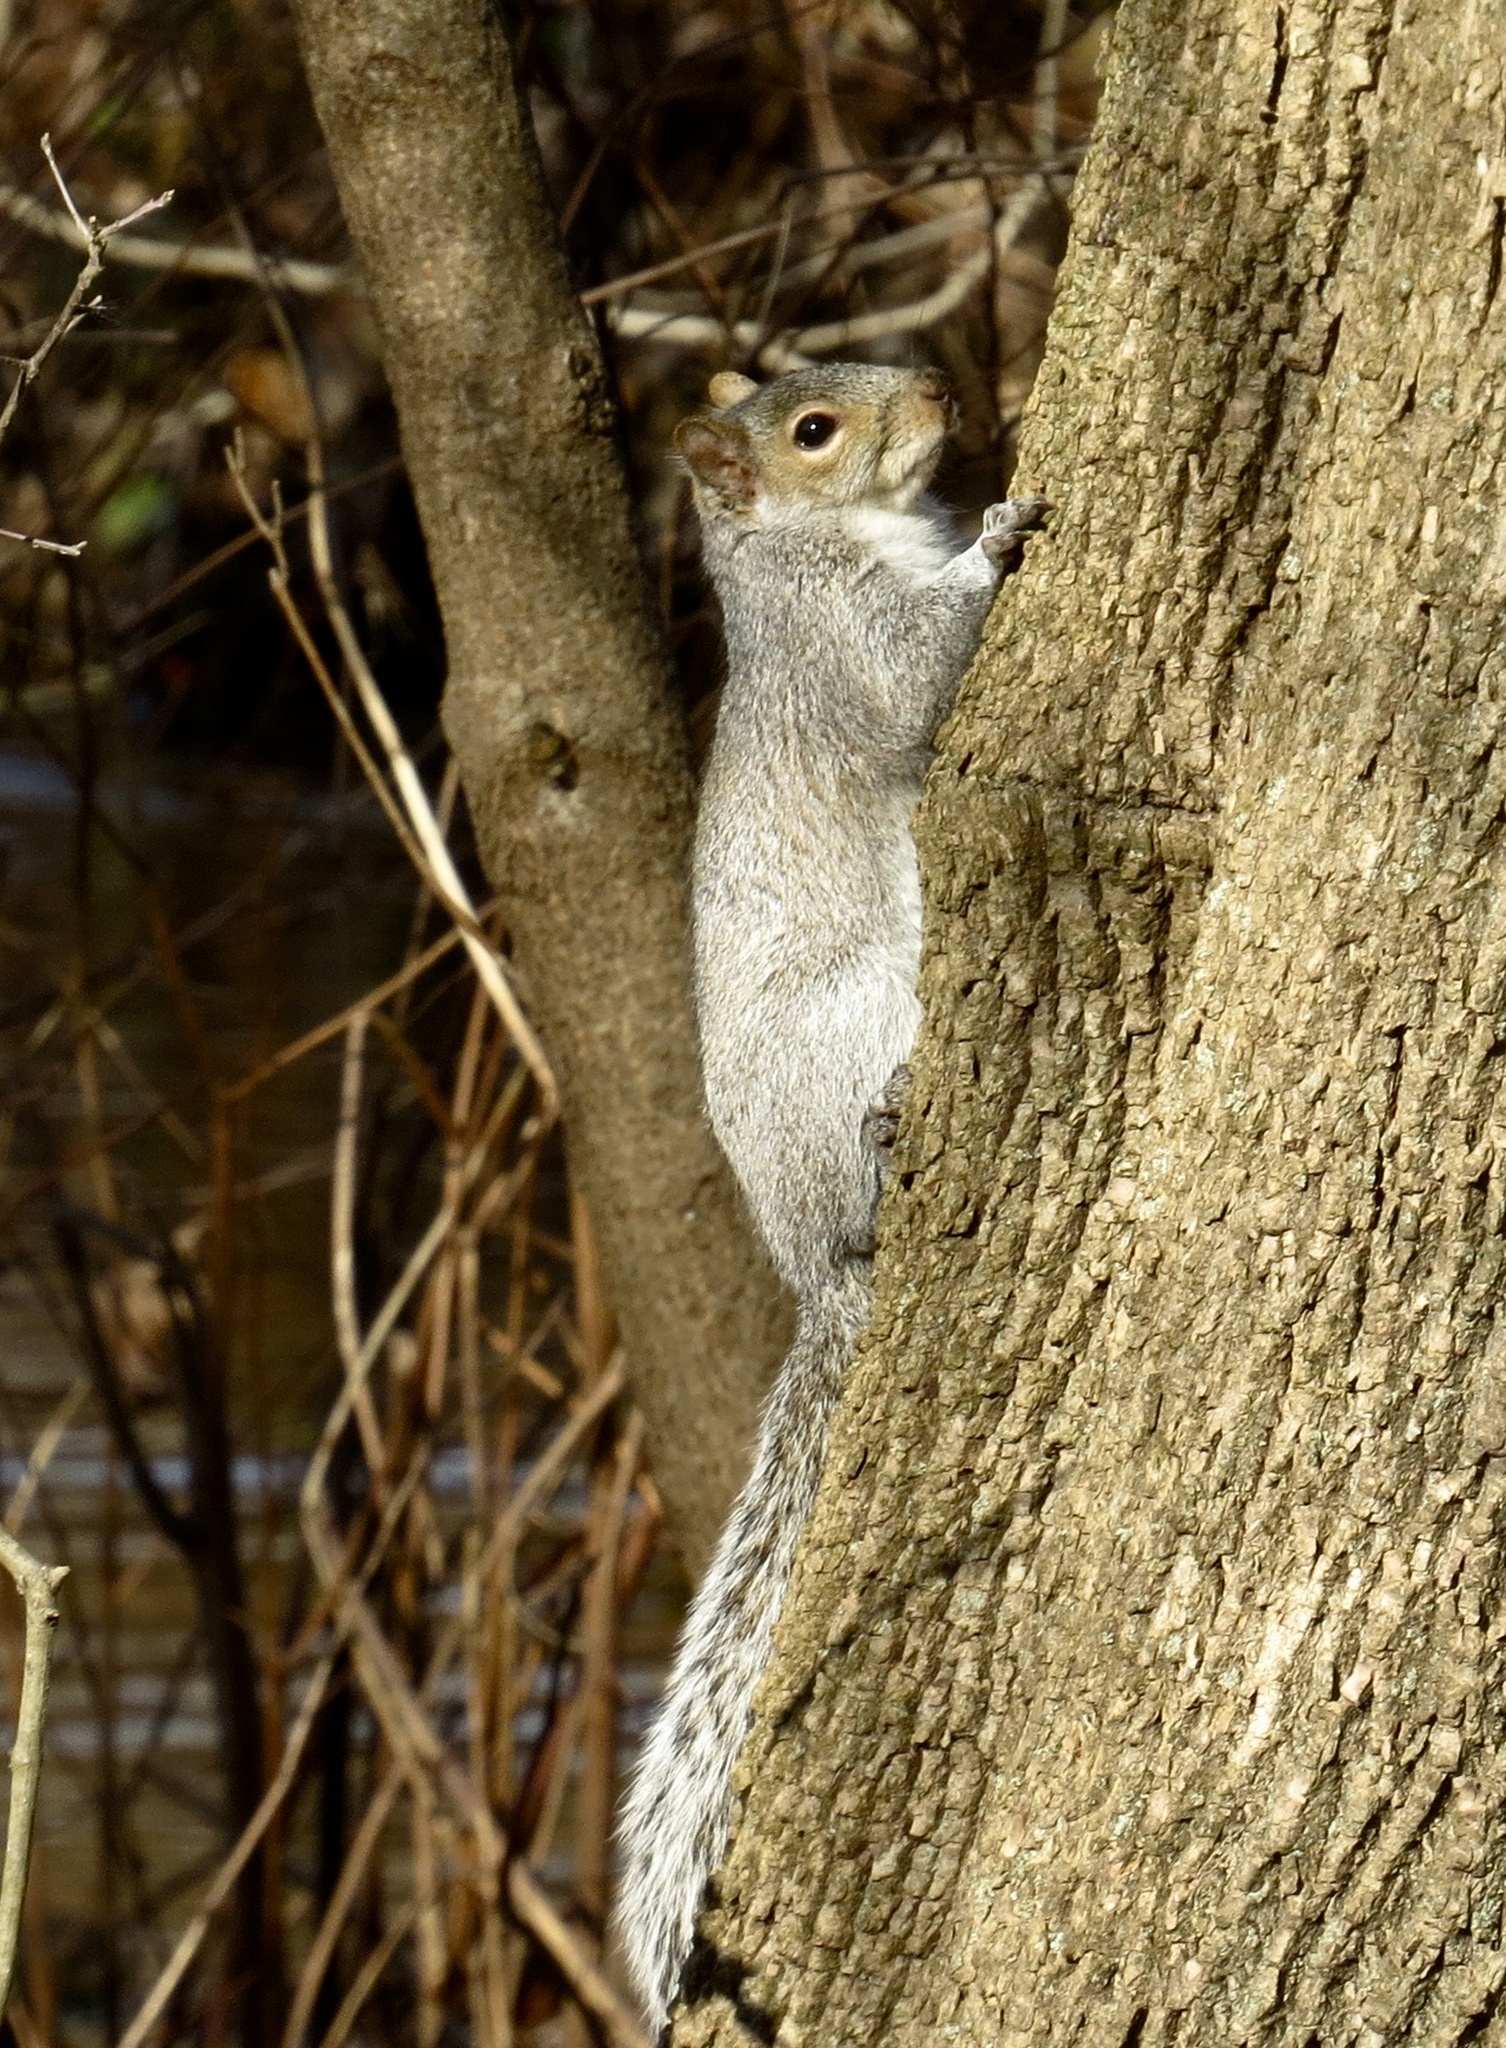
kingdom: Animalia
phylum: Chordata
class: Mammalia
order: Rodentia
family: Sciuridae
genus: Sciurus
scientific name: Sciurus carolinensis
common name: Eastern gray squirrel
